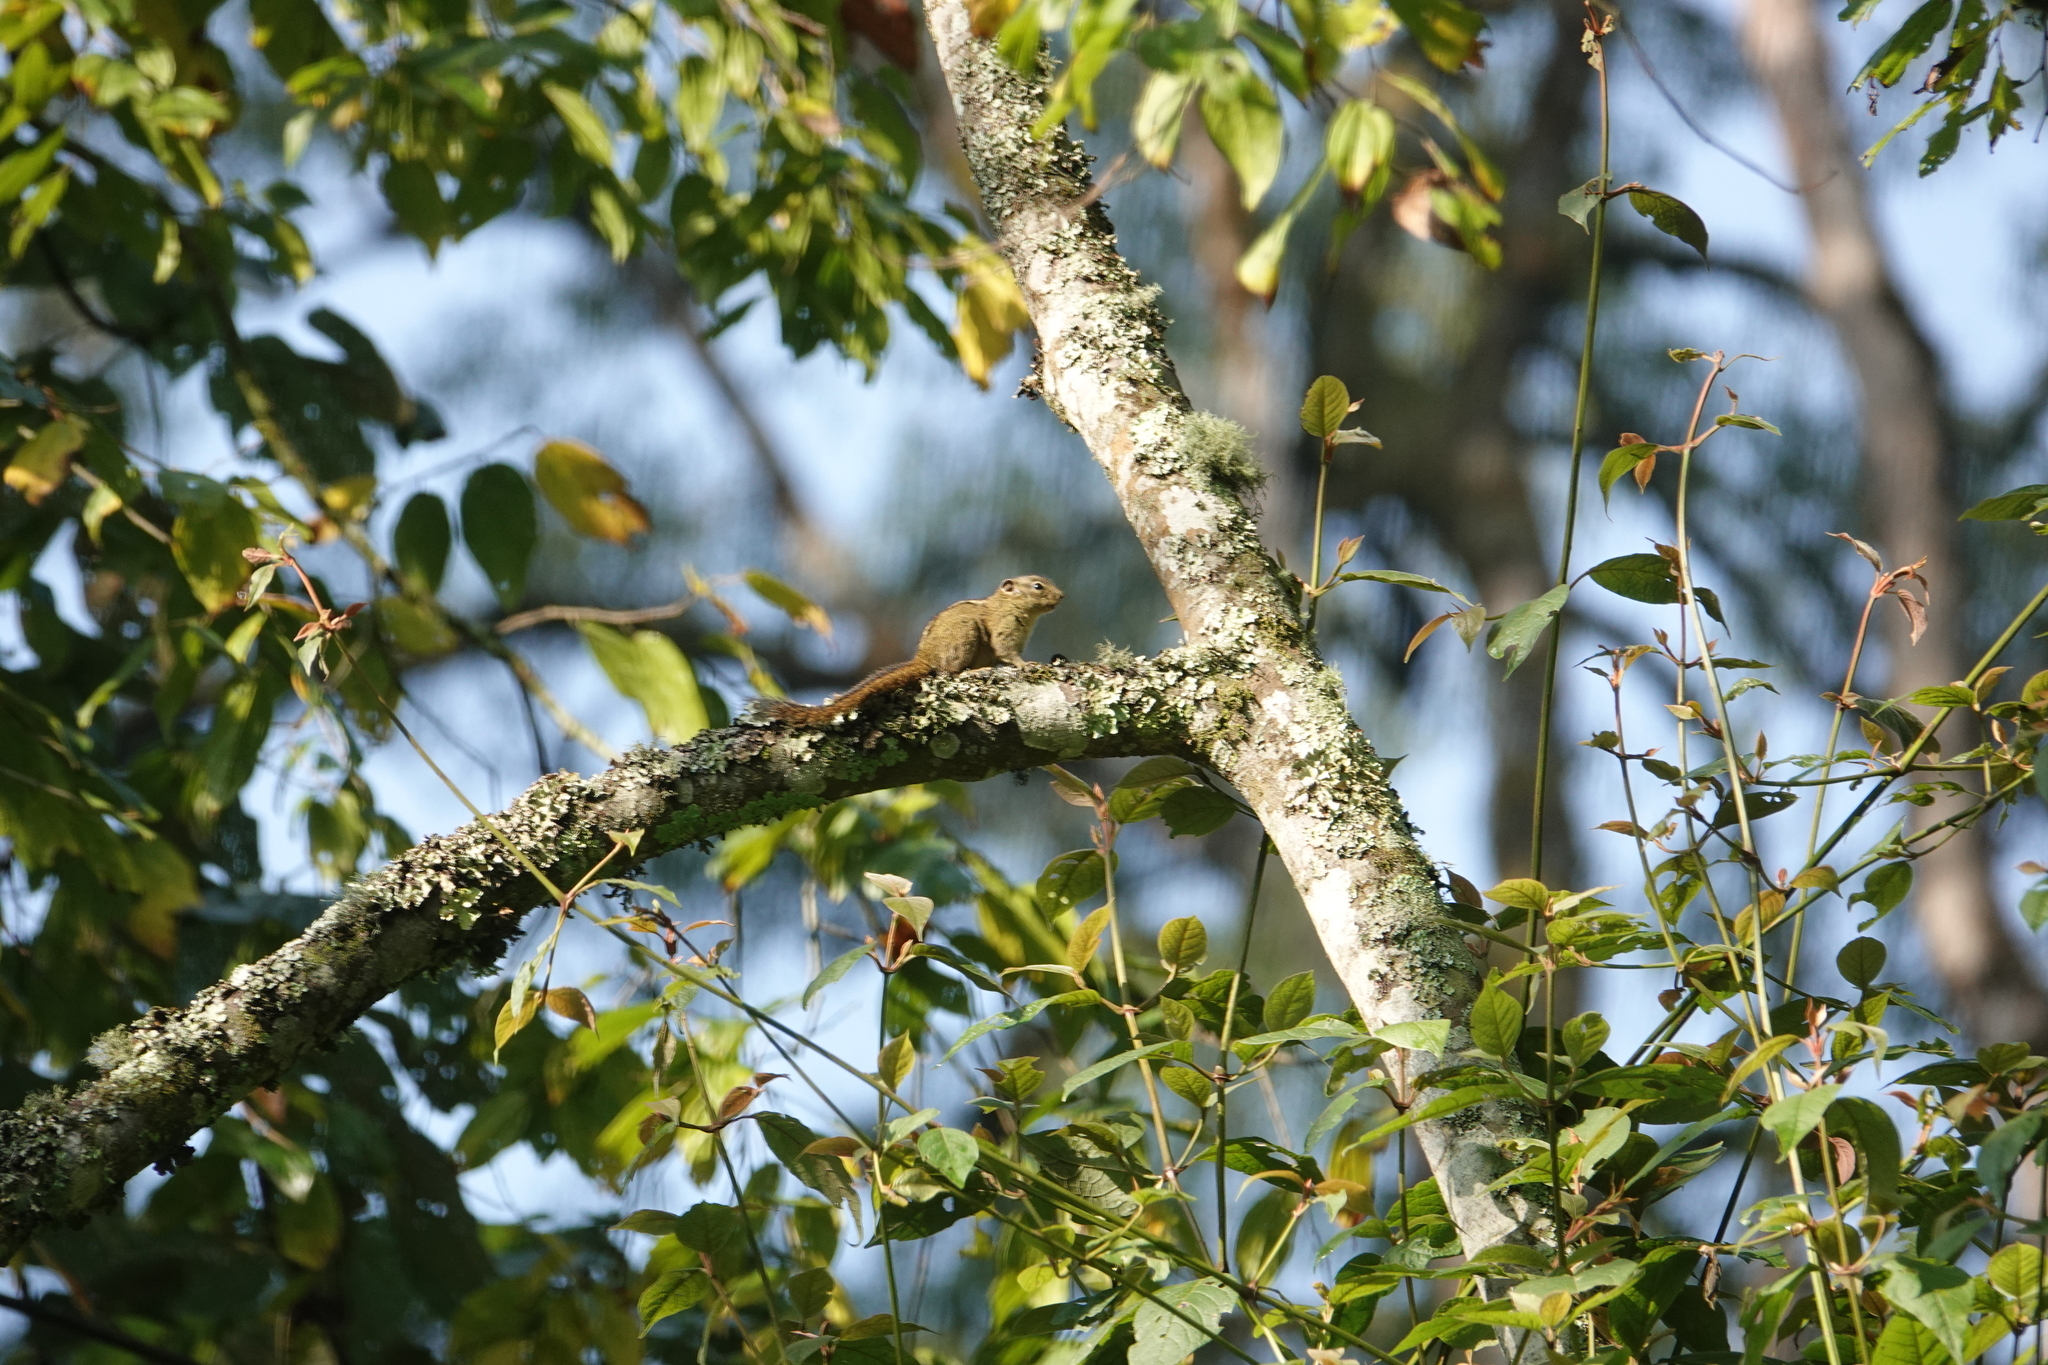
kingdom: Animalia
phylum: Chordata
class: Mammalia
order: Rodentia
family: Sciuridae
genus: Paraxerus
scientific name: Paraxerus boehmi
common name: Boehm's bush squirrel
